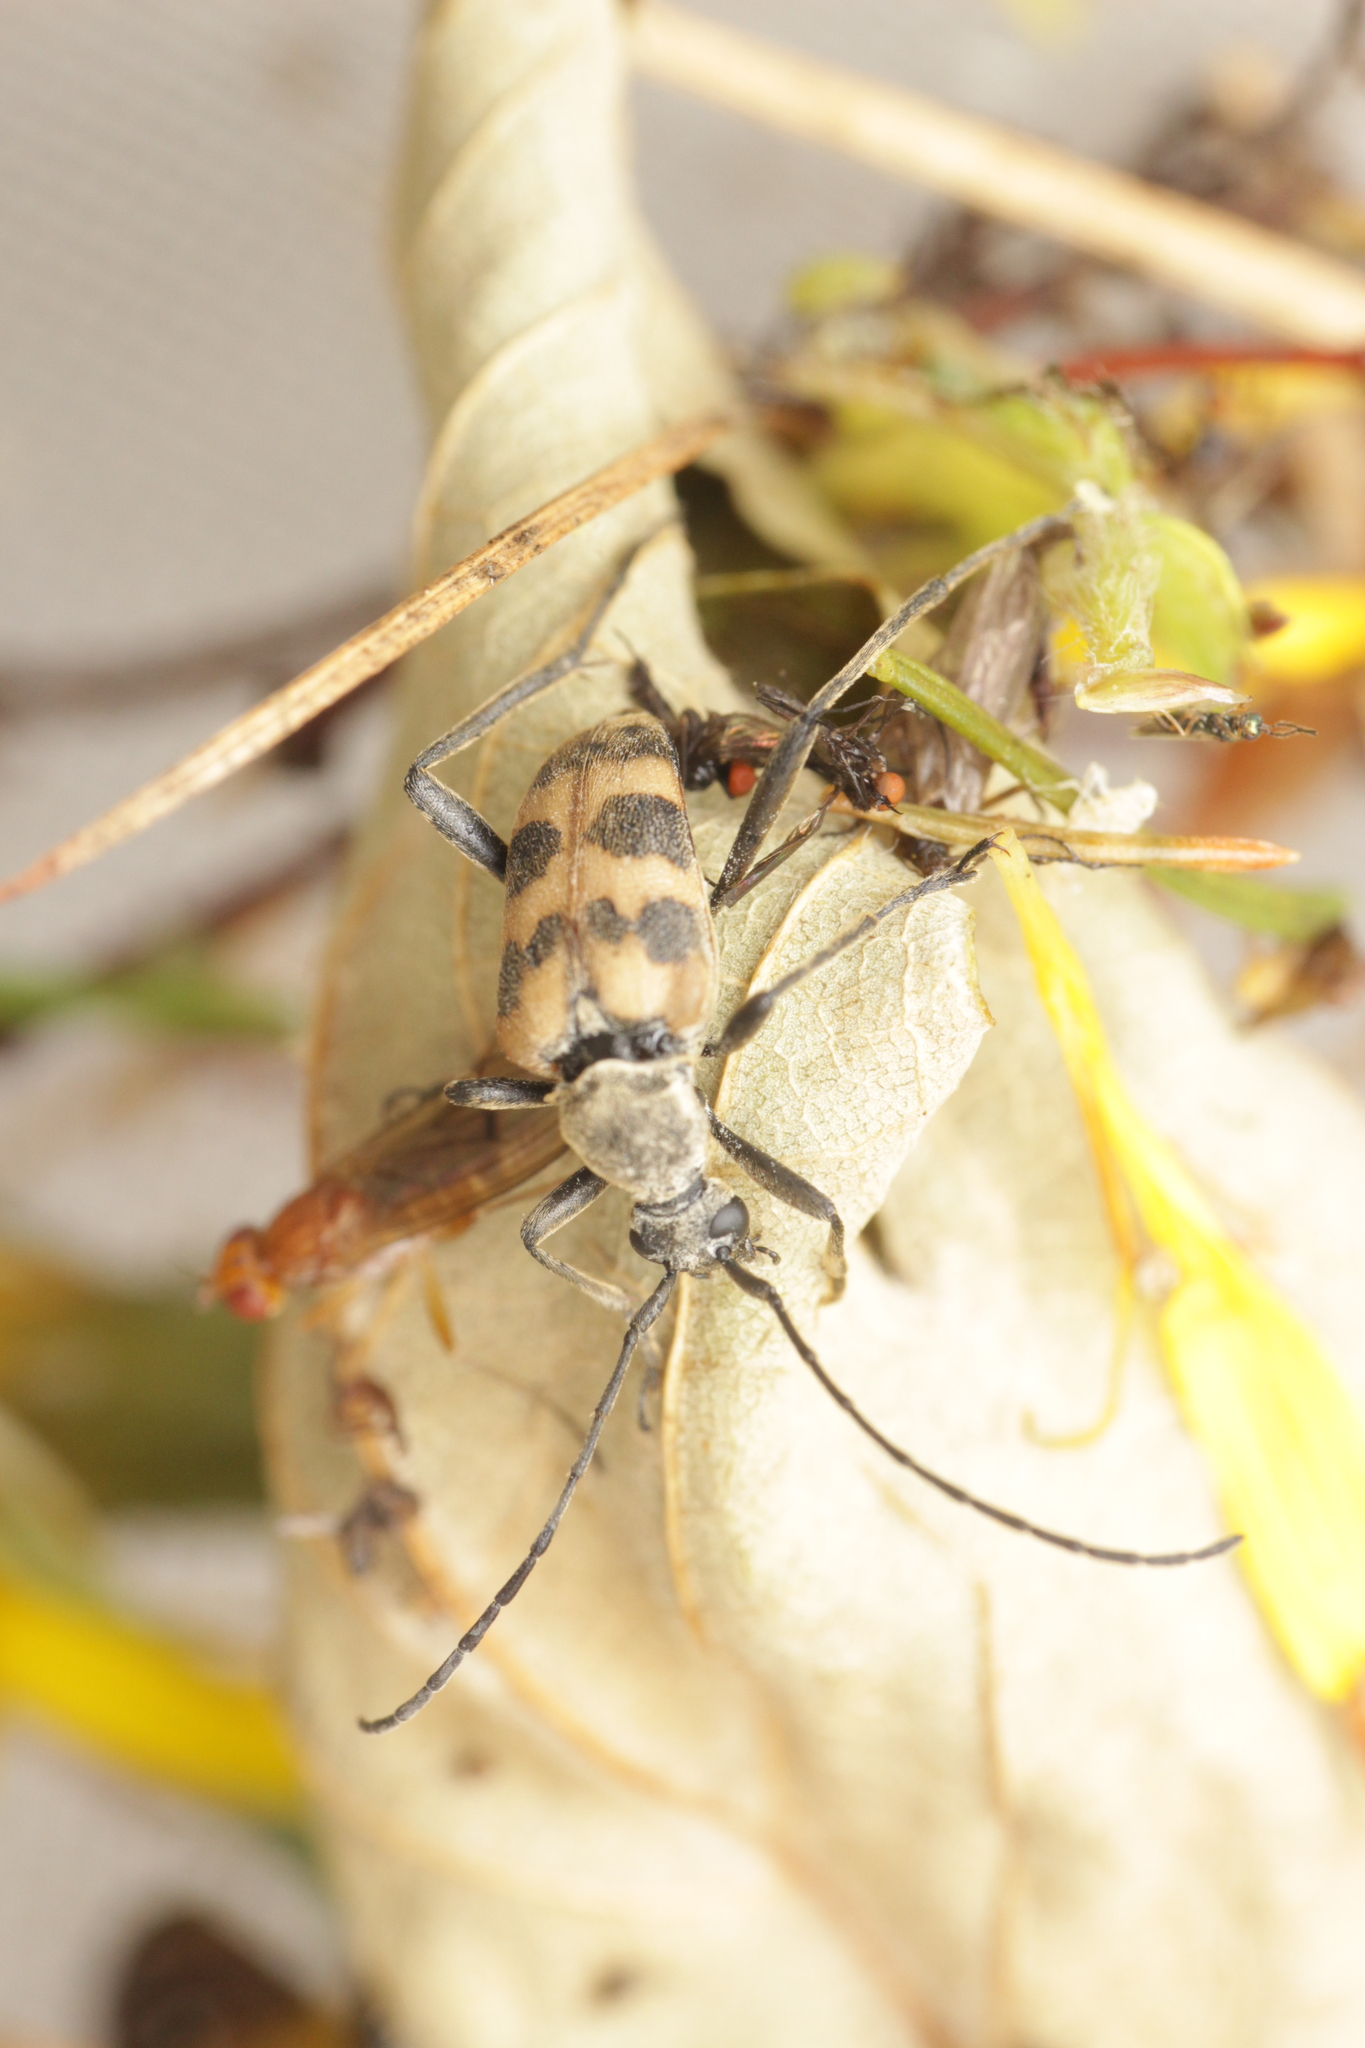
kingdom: Animalia
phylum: Arthropoda
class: Insecta
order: Coleoptera
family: Cerambycidae
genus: Pachytodes
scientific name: Pachytodes cerambyciformis
